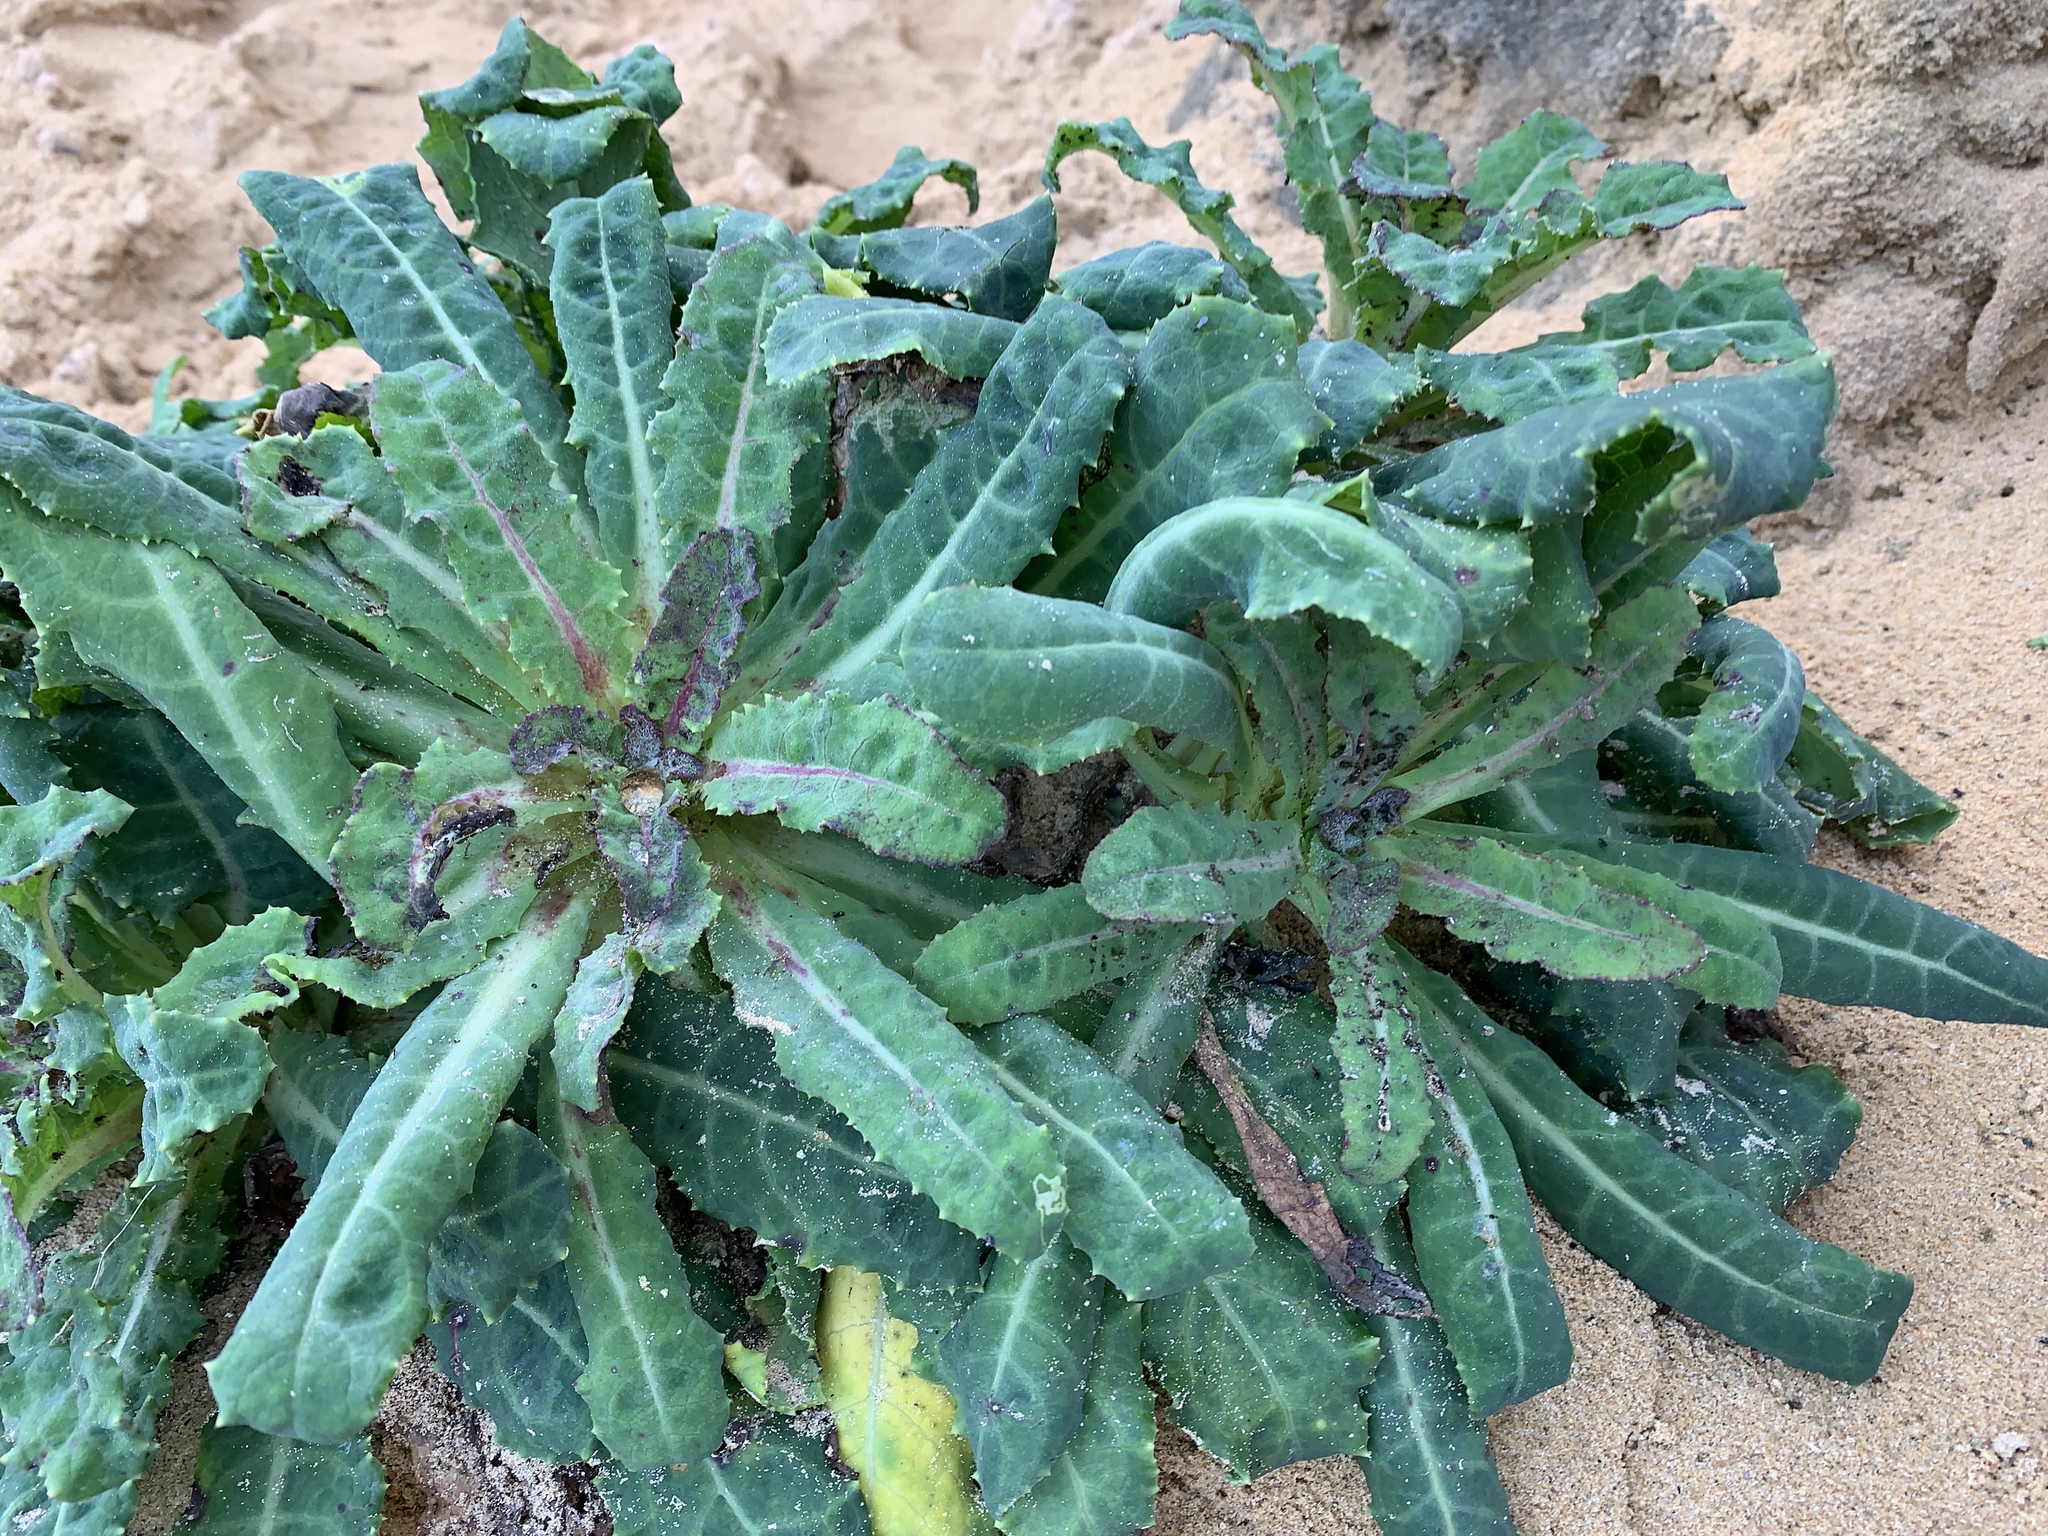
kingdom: Plantae
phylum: Tracheophyta
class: Magnoliopsida
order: Asterales
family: Asteraceae
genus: Sonchus
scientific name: Sonchus megalocarpus
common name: Dune thistle
